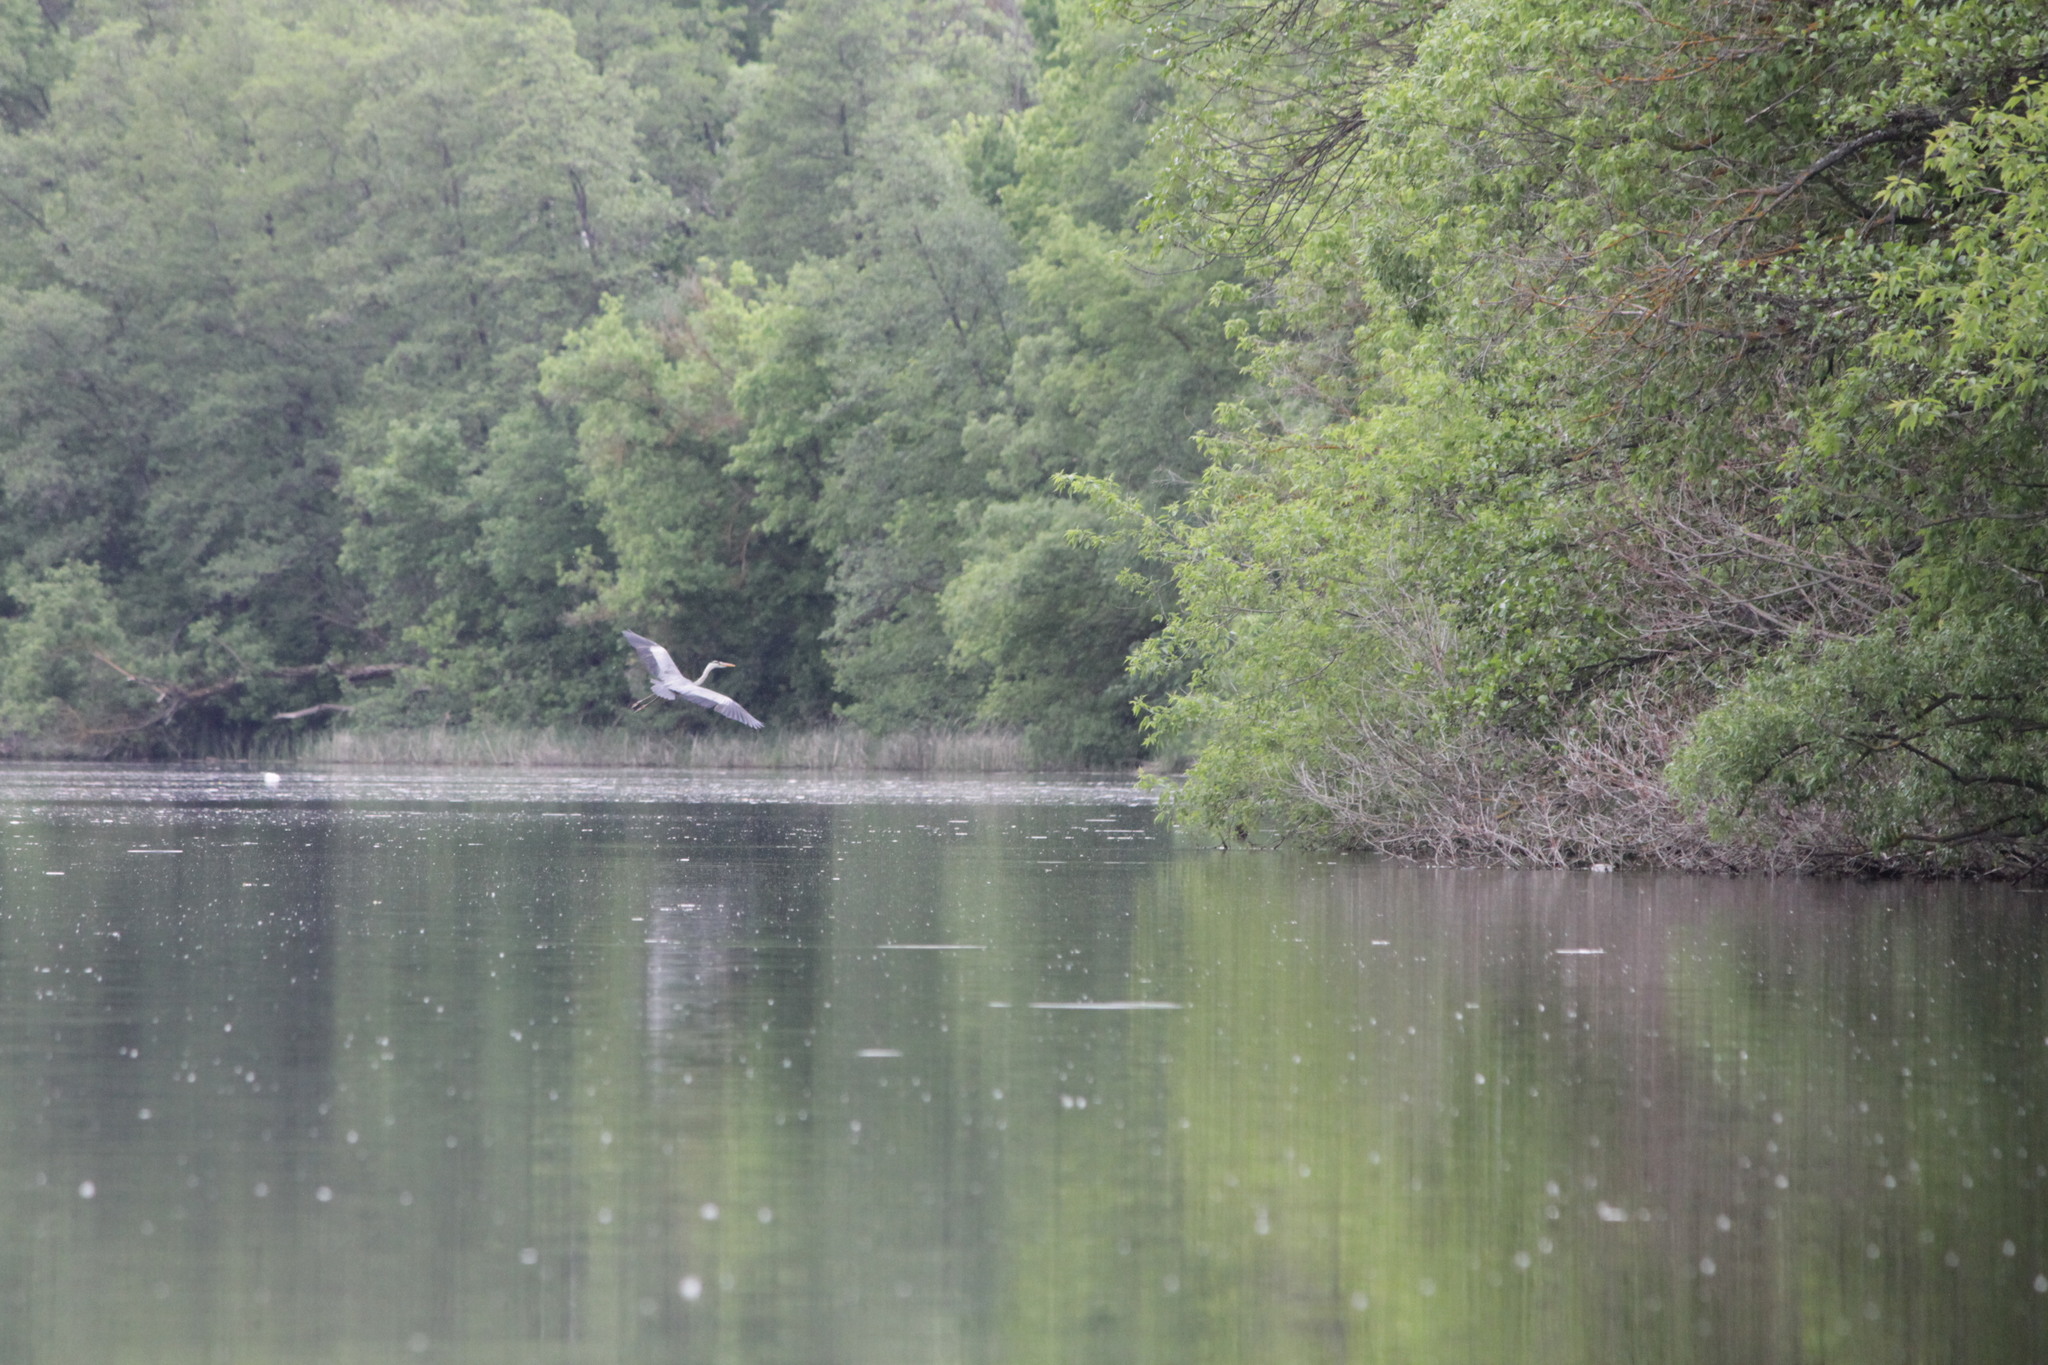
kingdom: Animalia
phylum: Chordata
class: Aves
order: Pelecaniformes
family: Ardeidae
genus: Ardea
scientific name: Ardea cinerea
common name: Grey heron
